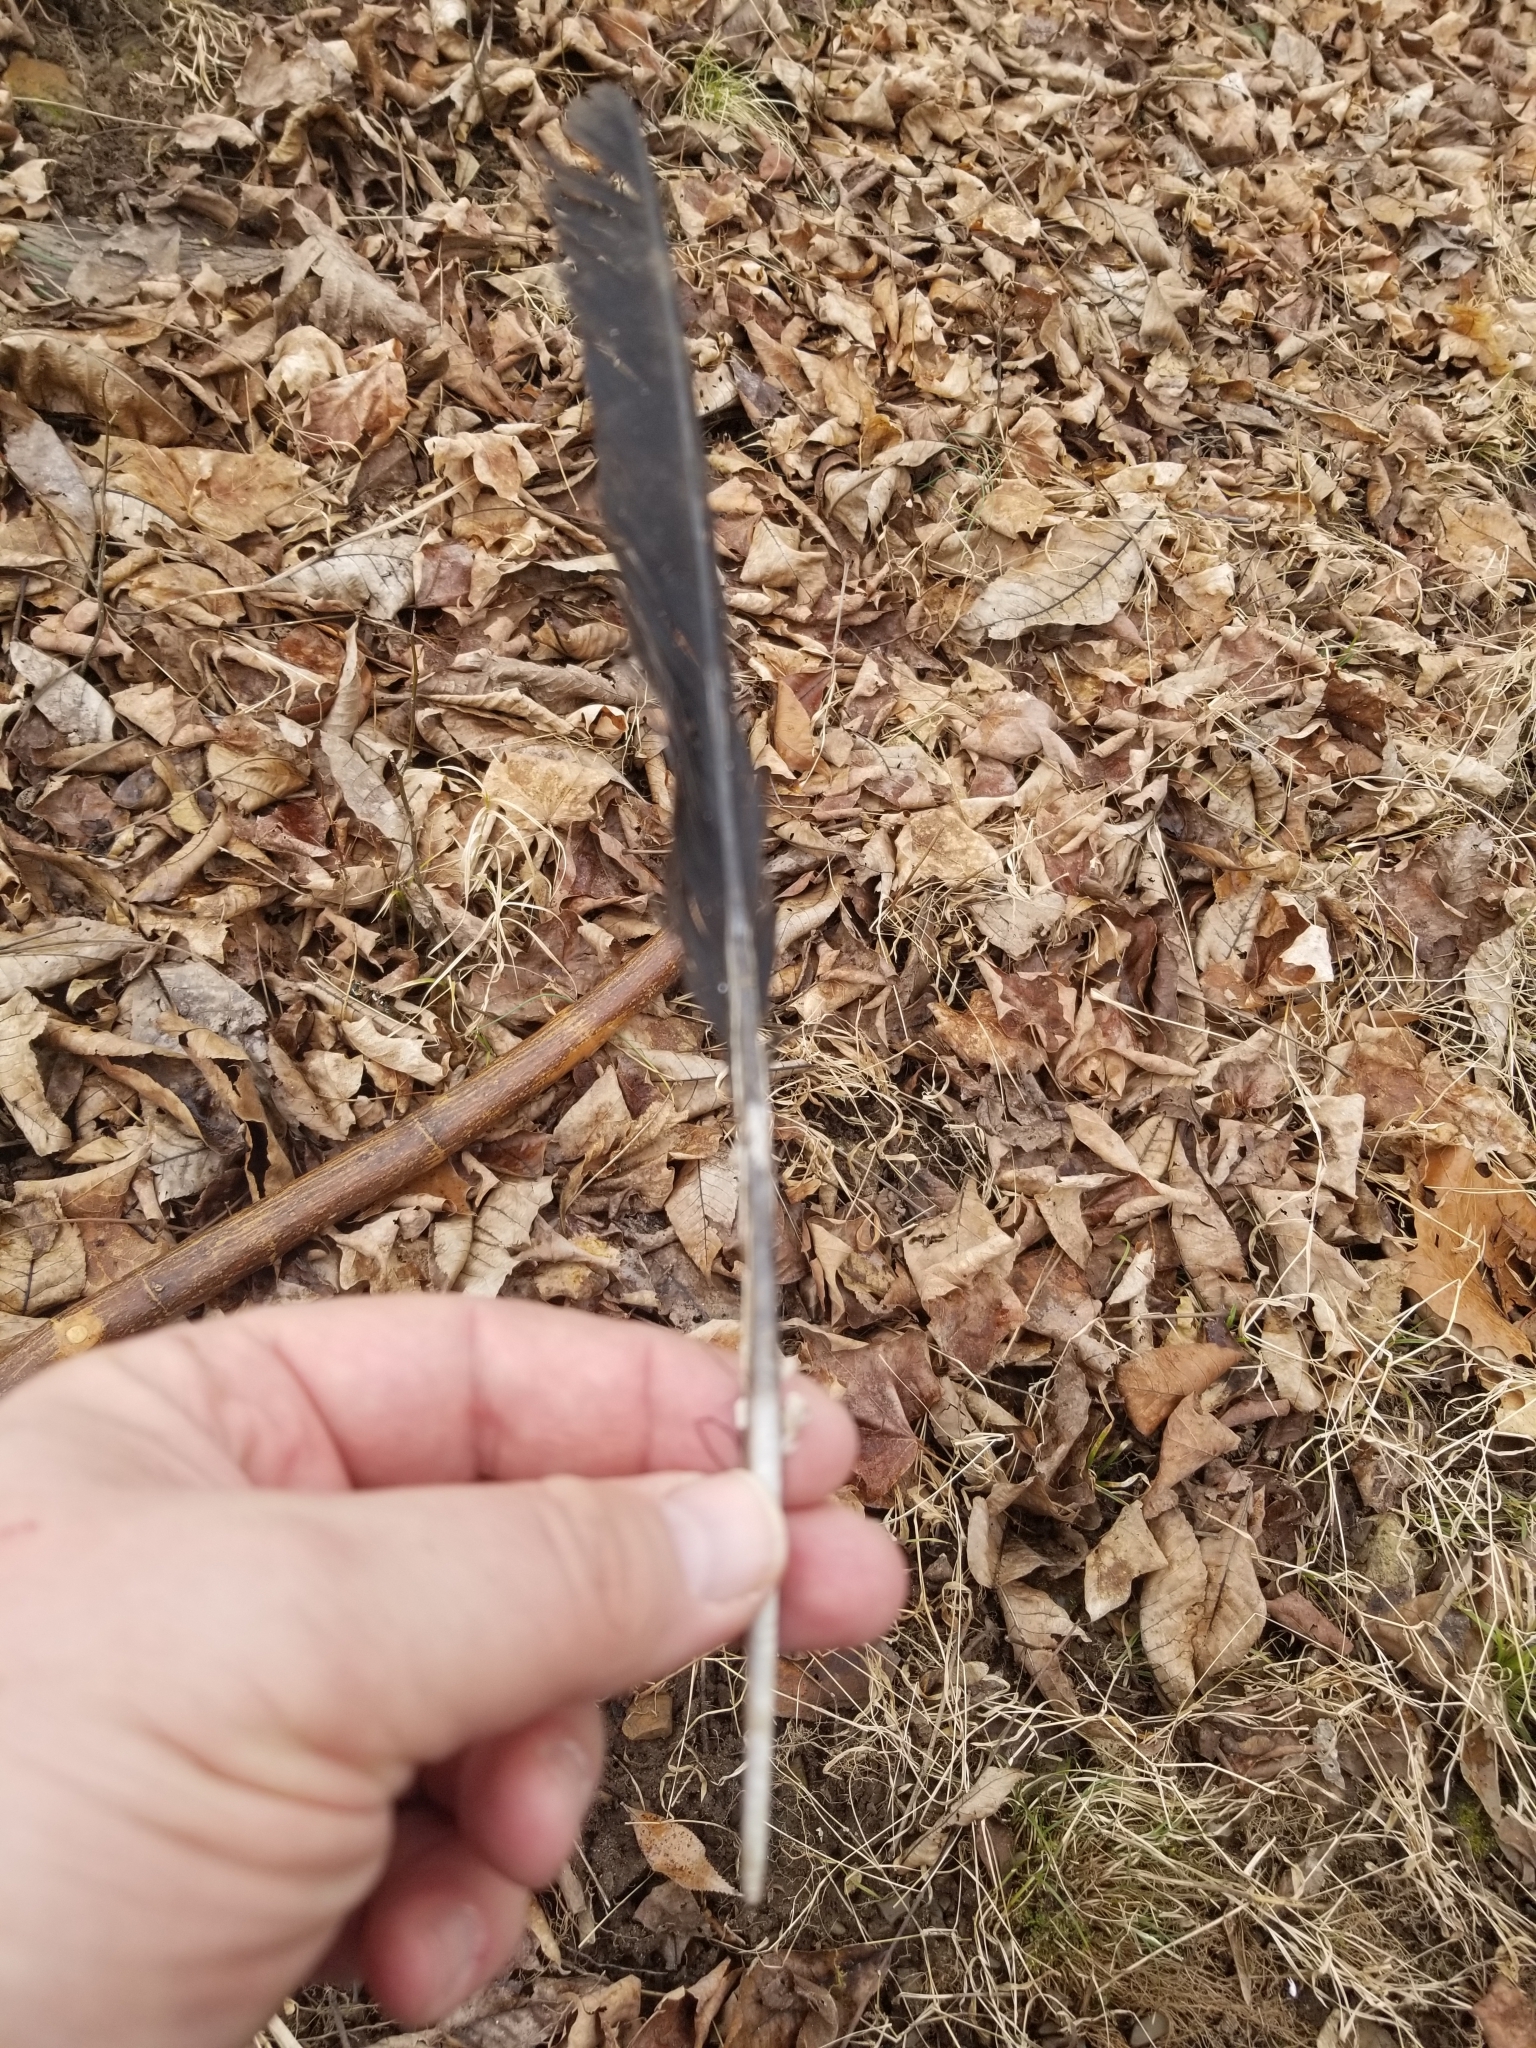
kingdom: Animalia
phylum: Chordata
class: Aves
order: Passeriformes
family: Corvidae
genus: Corvus
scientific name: Corvus brachyrhynchos
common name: American crow
